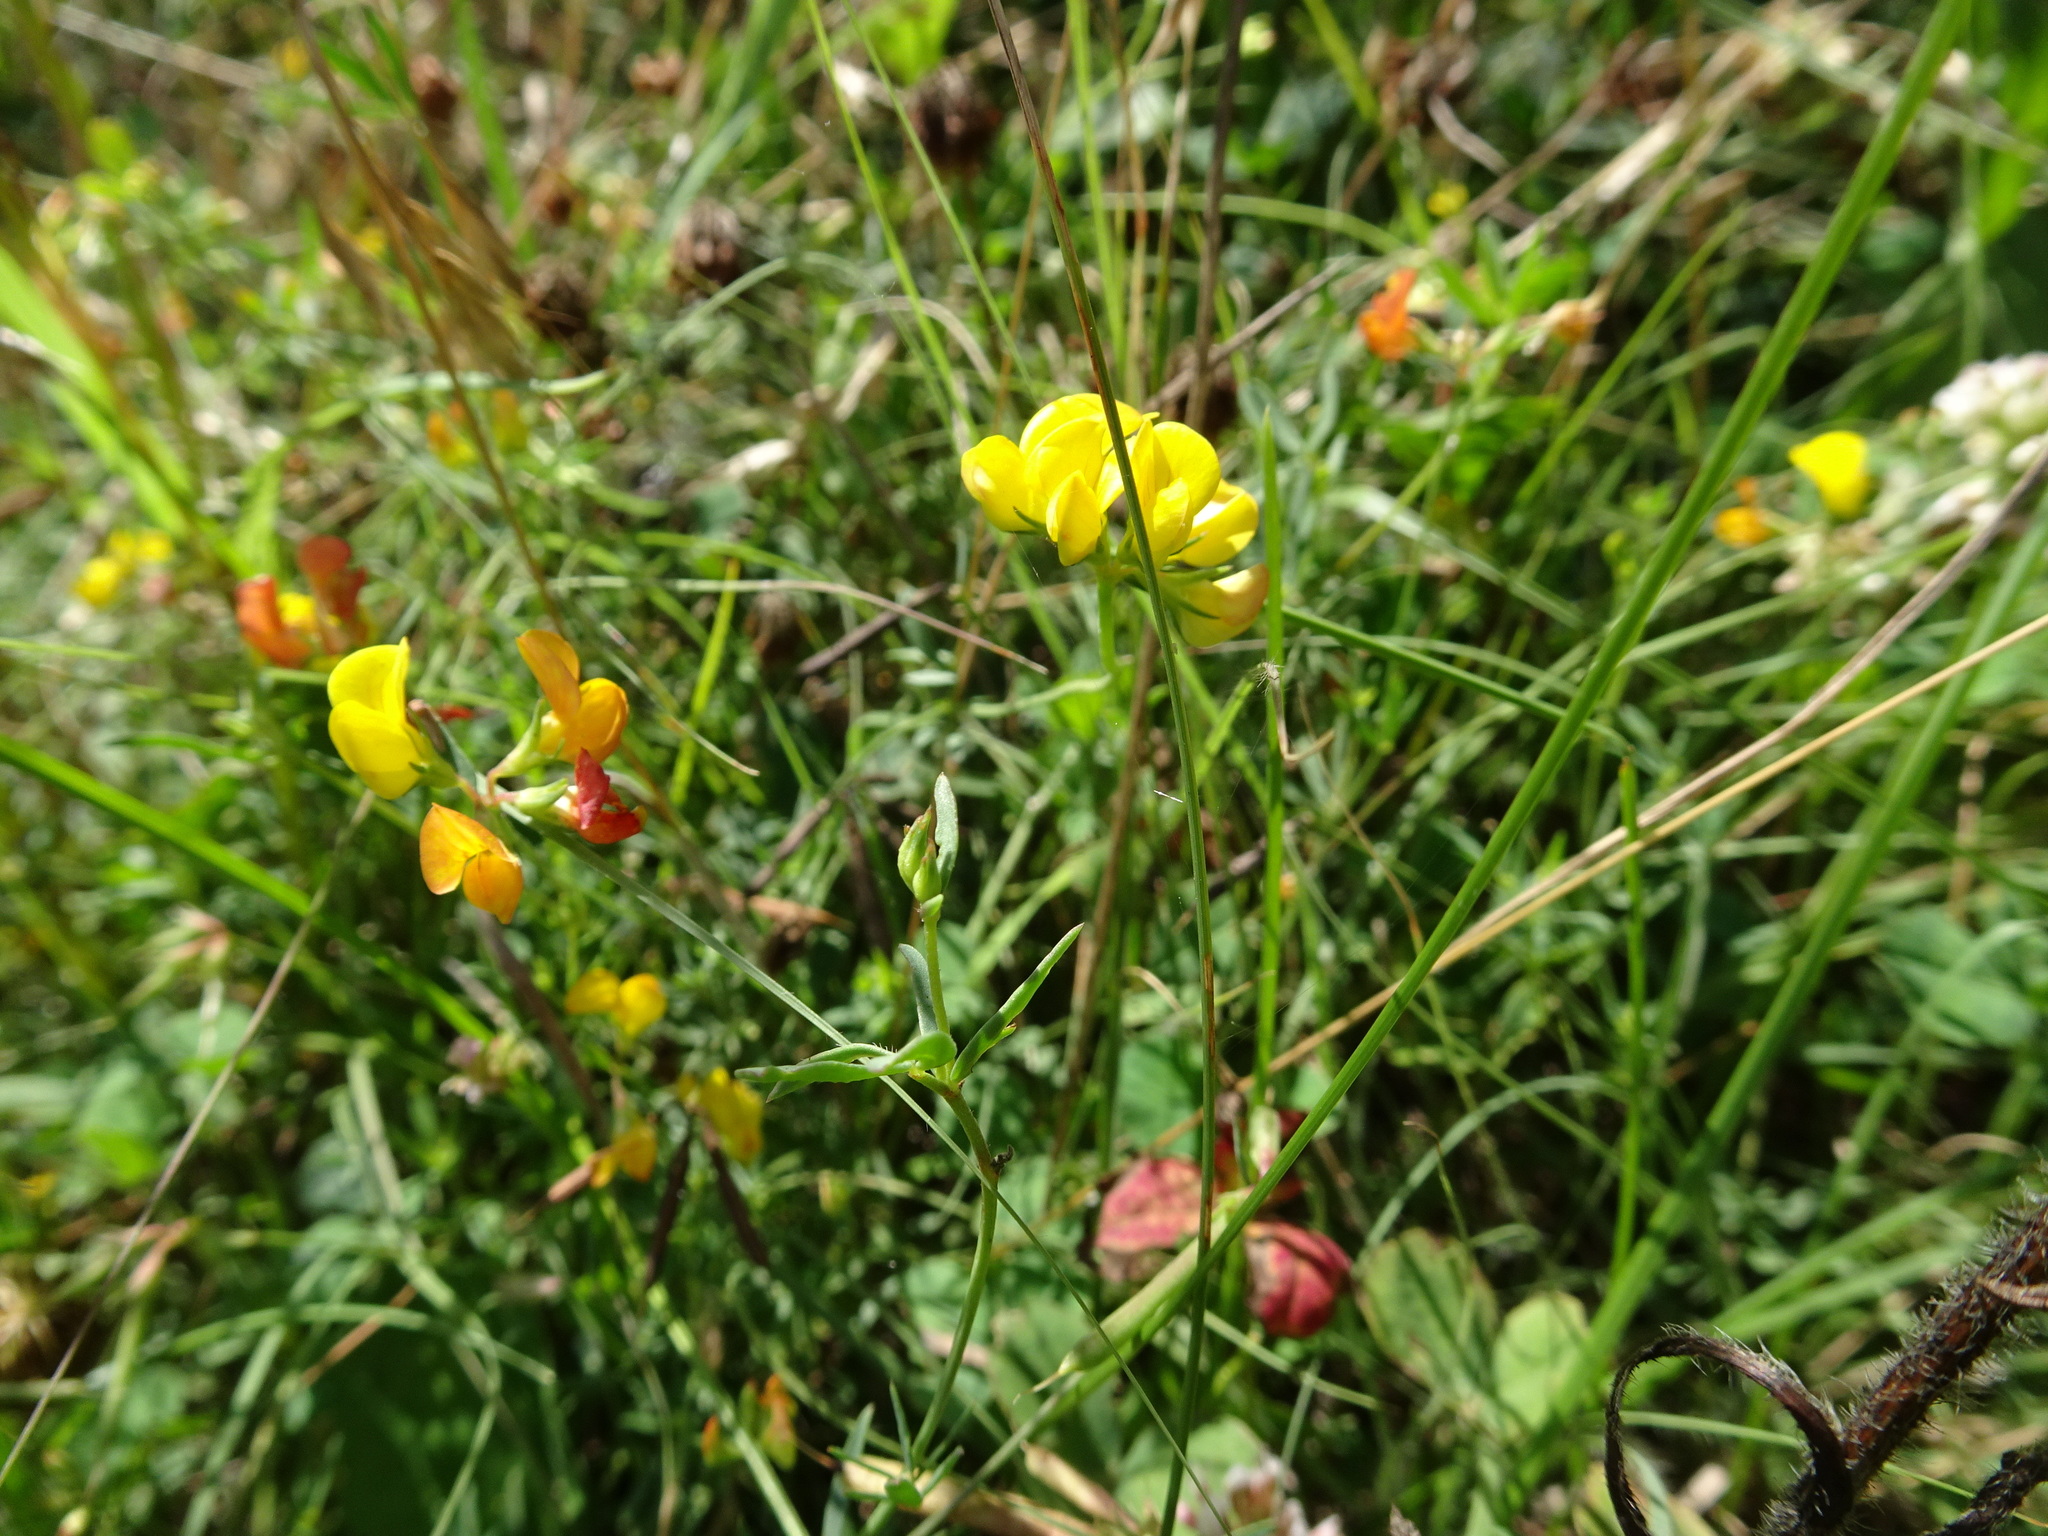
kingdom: Plantae
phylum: Tracheophyta
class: Magnoliopsida
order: Fabales
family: Fabaceae
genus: Lotus
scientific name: Lotus corniculatus
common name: Common bird's-foot-trefoil
